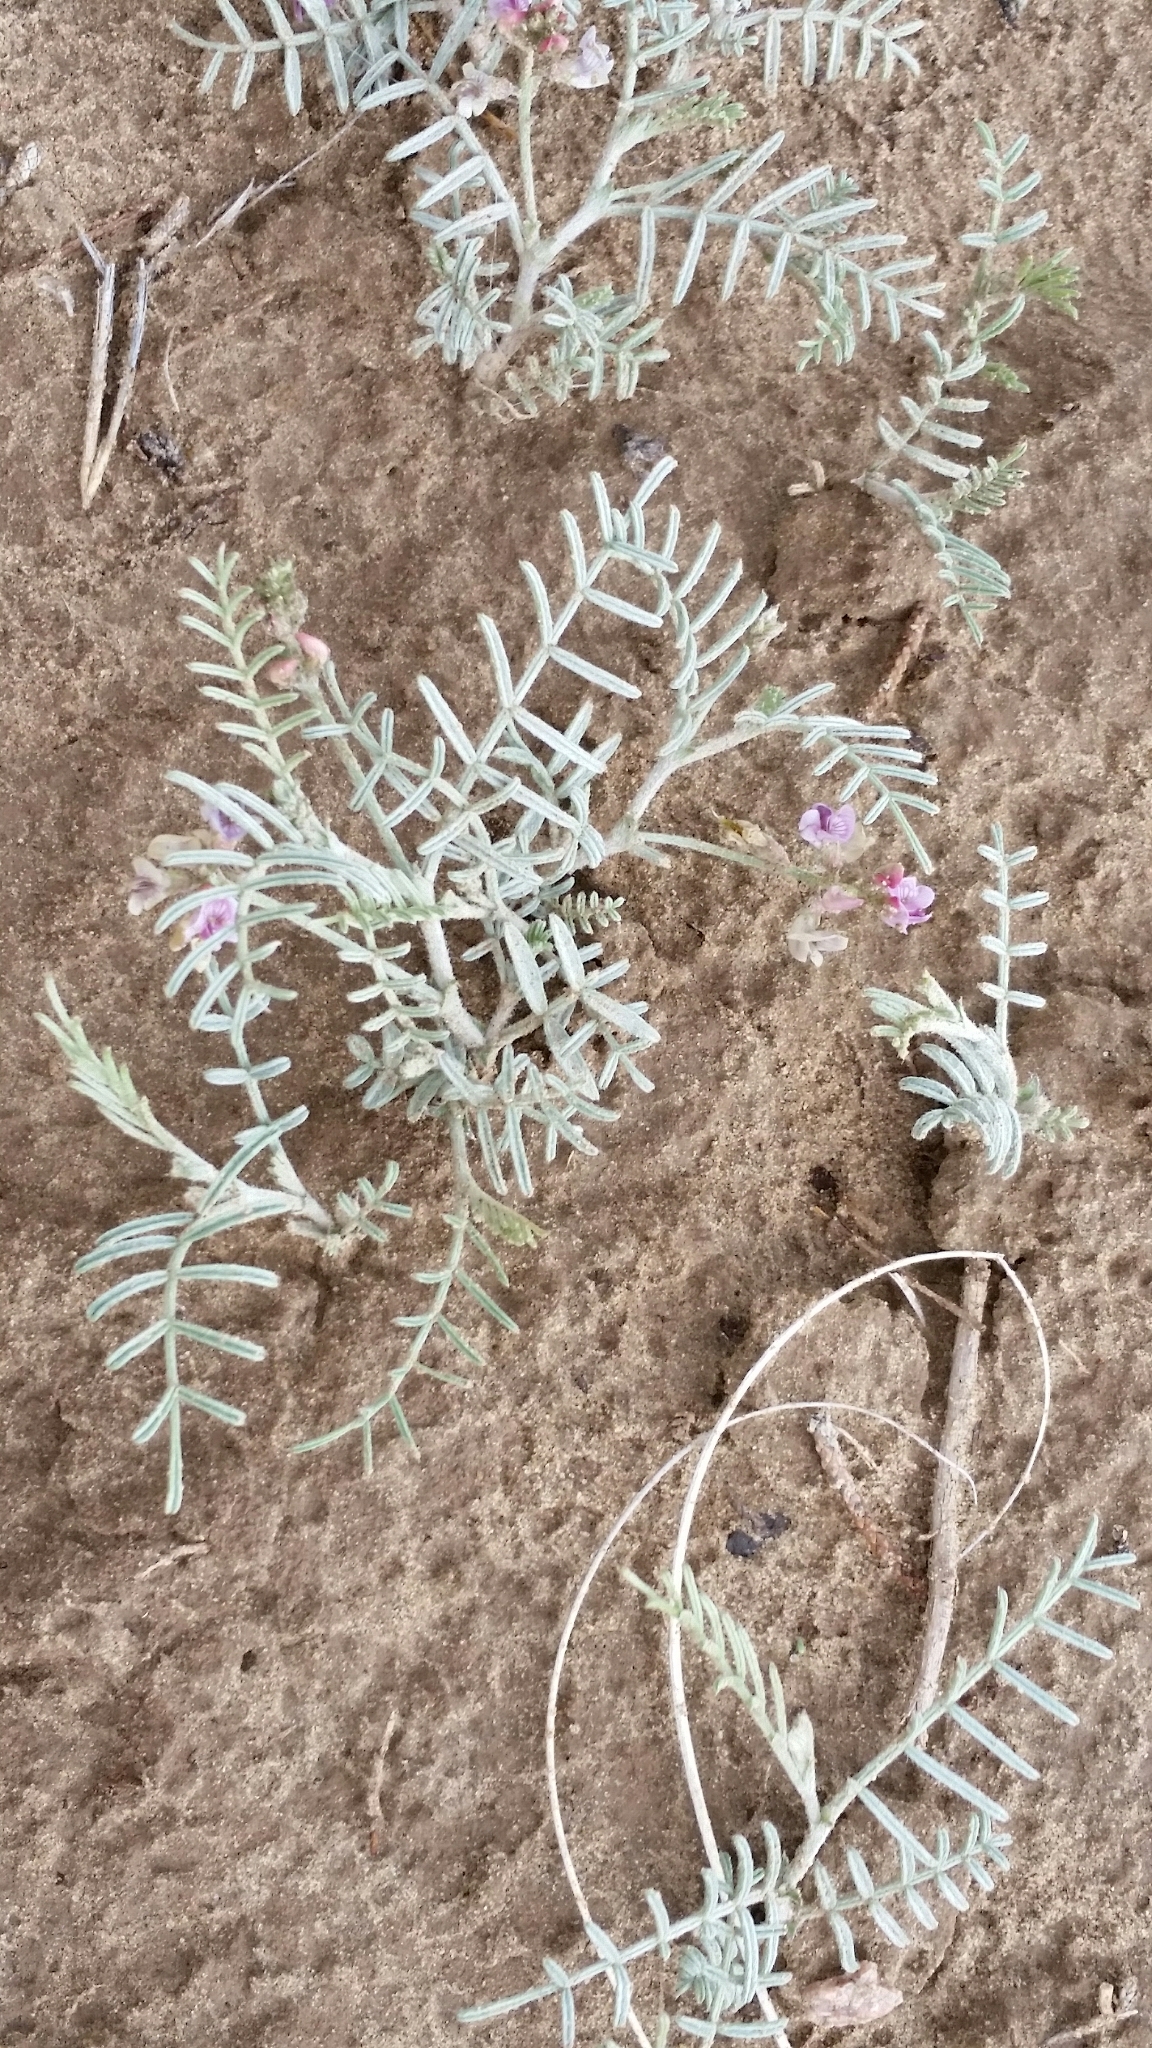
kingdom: Plantae
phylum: Tracheophyta
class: Magnoliopsida
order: Fabales
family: Fabaceae
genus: Astragalus
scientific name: Astragalus ceramicus
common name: Painted milk-vetch
